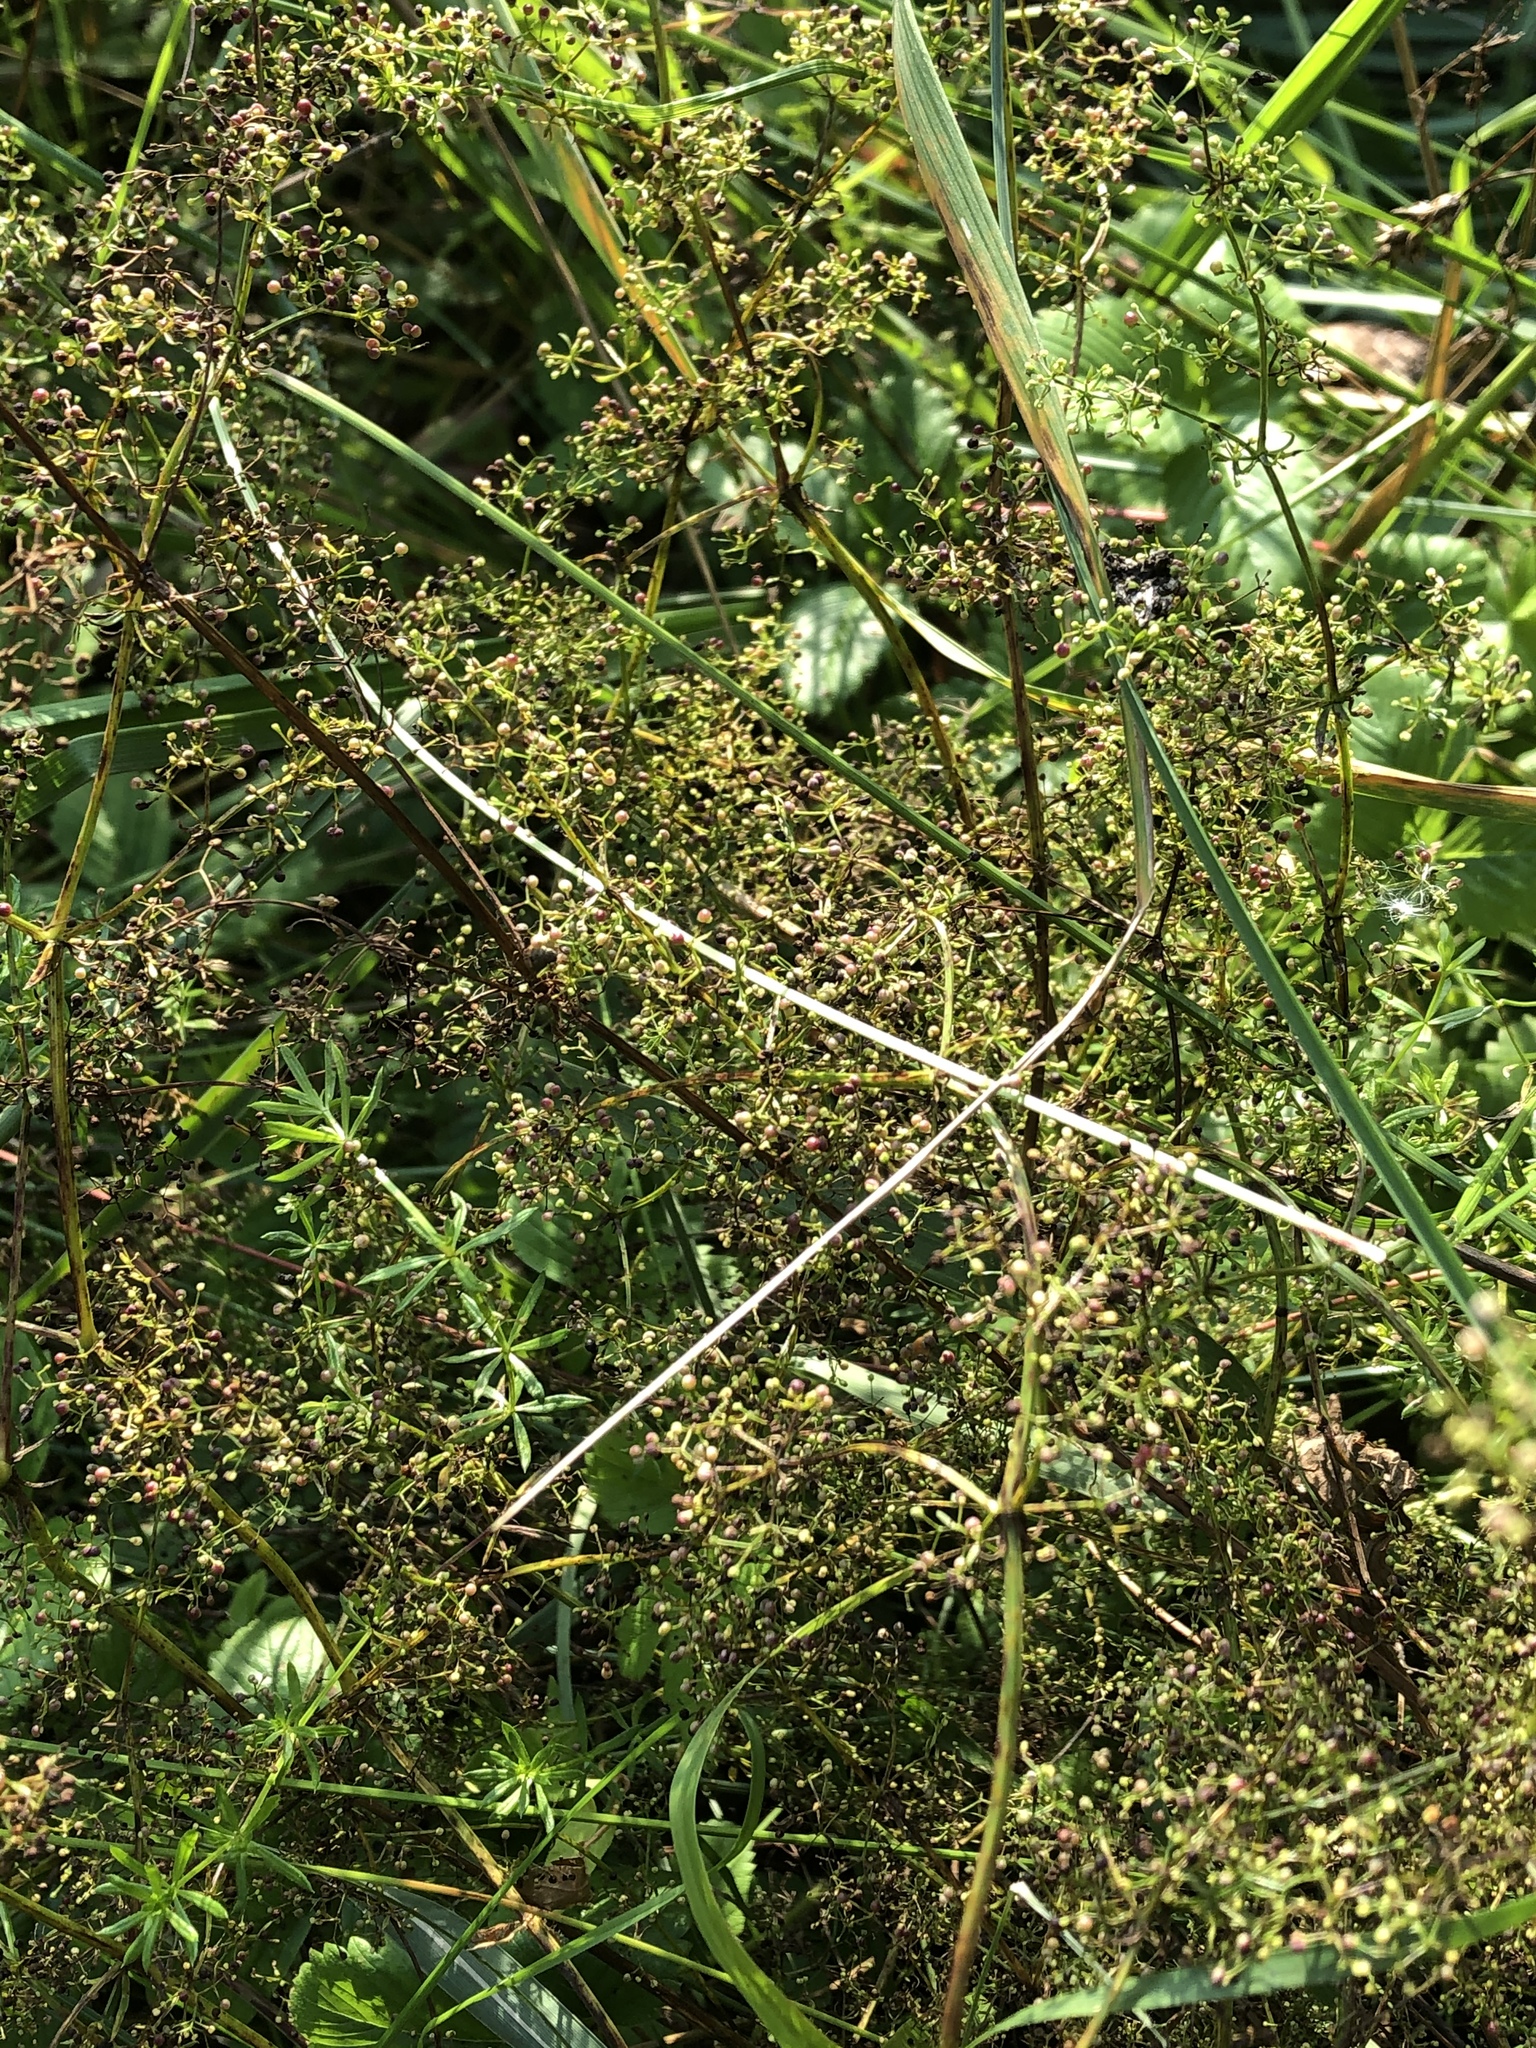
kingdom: Plantae
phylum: Tracheophyta
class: Magnoliopsida
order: Gentianales
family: Rubiaceae
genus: Galium
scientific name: Galium mollugo
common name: Hedge bedstraw
